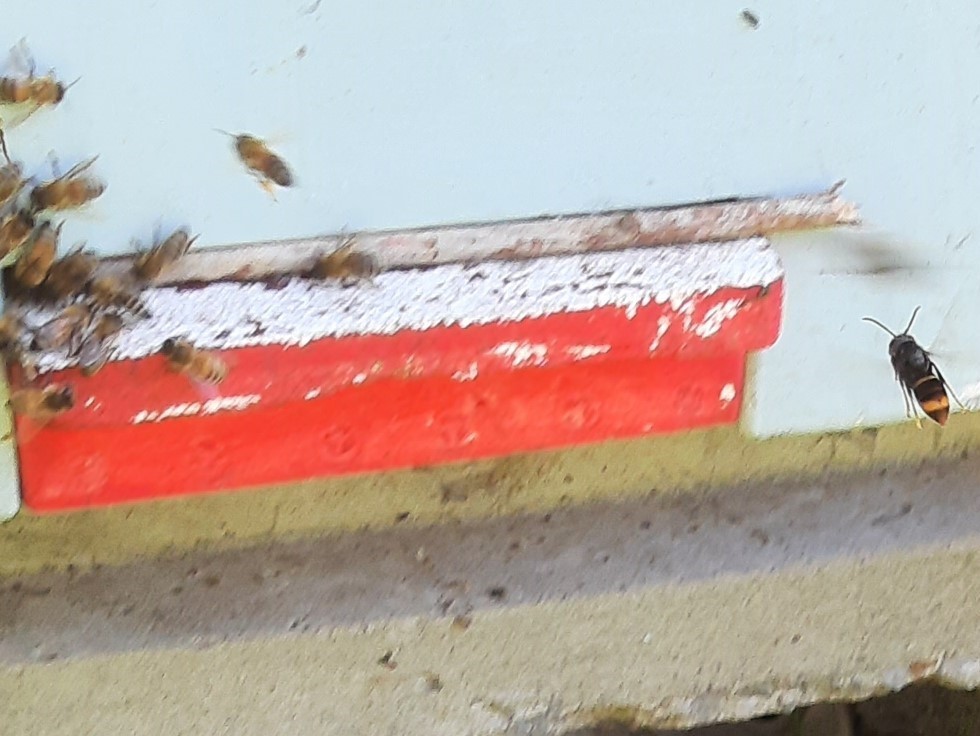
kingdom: Animalia
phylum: Arthropoda
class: Insecta
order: Hymenoptera
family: Vespidae
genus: Vespa
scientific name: Vespa velutina
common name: Asian hornet
